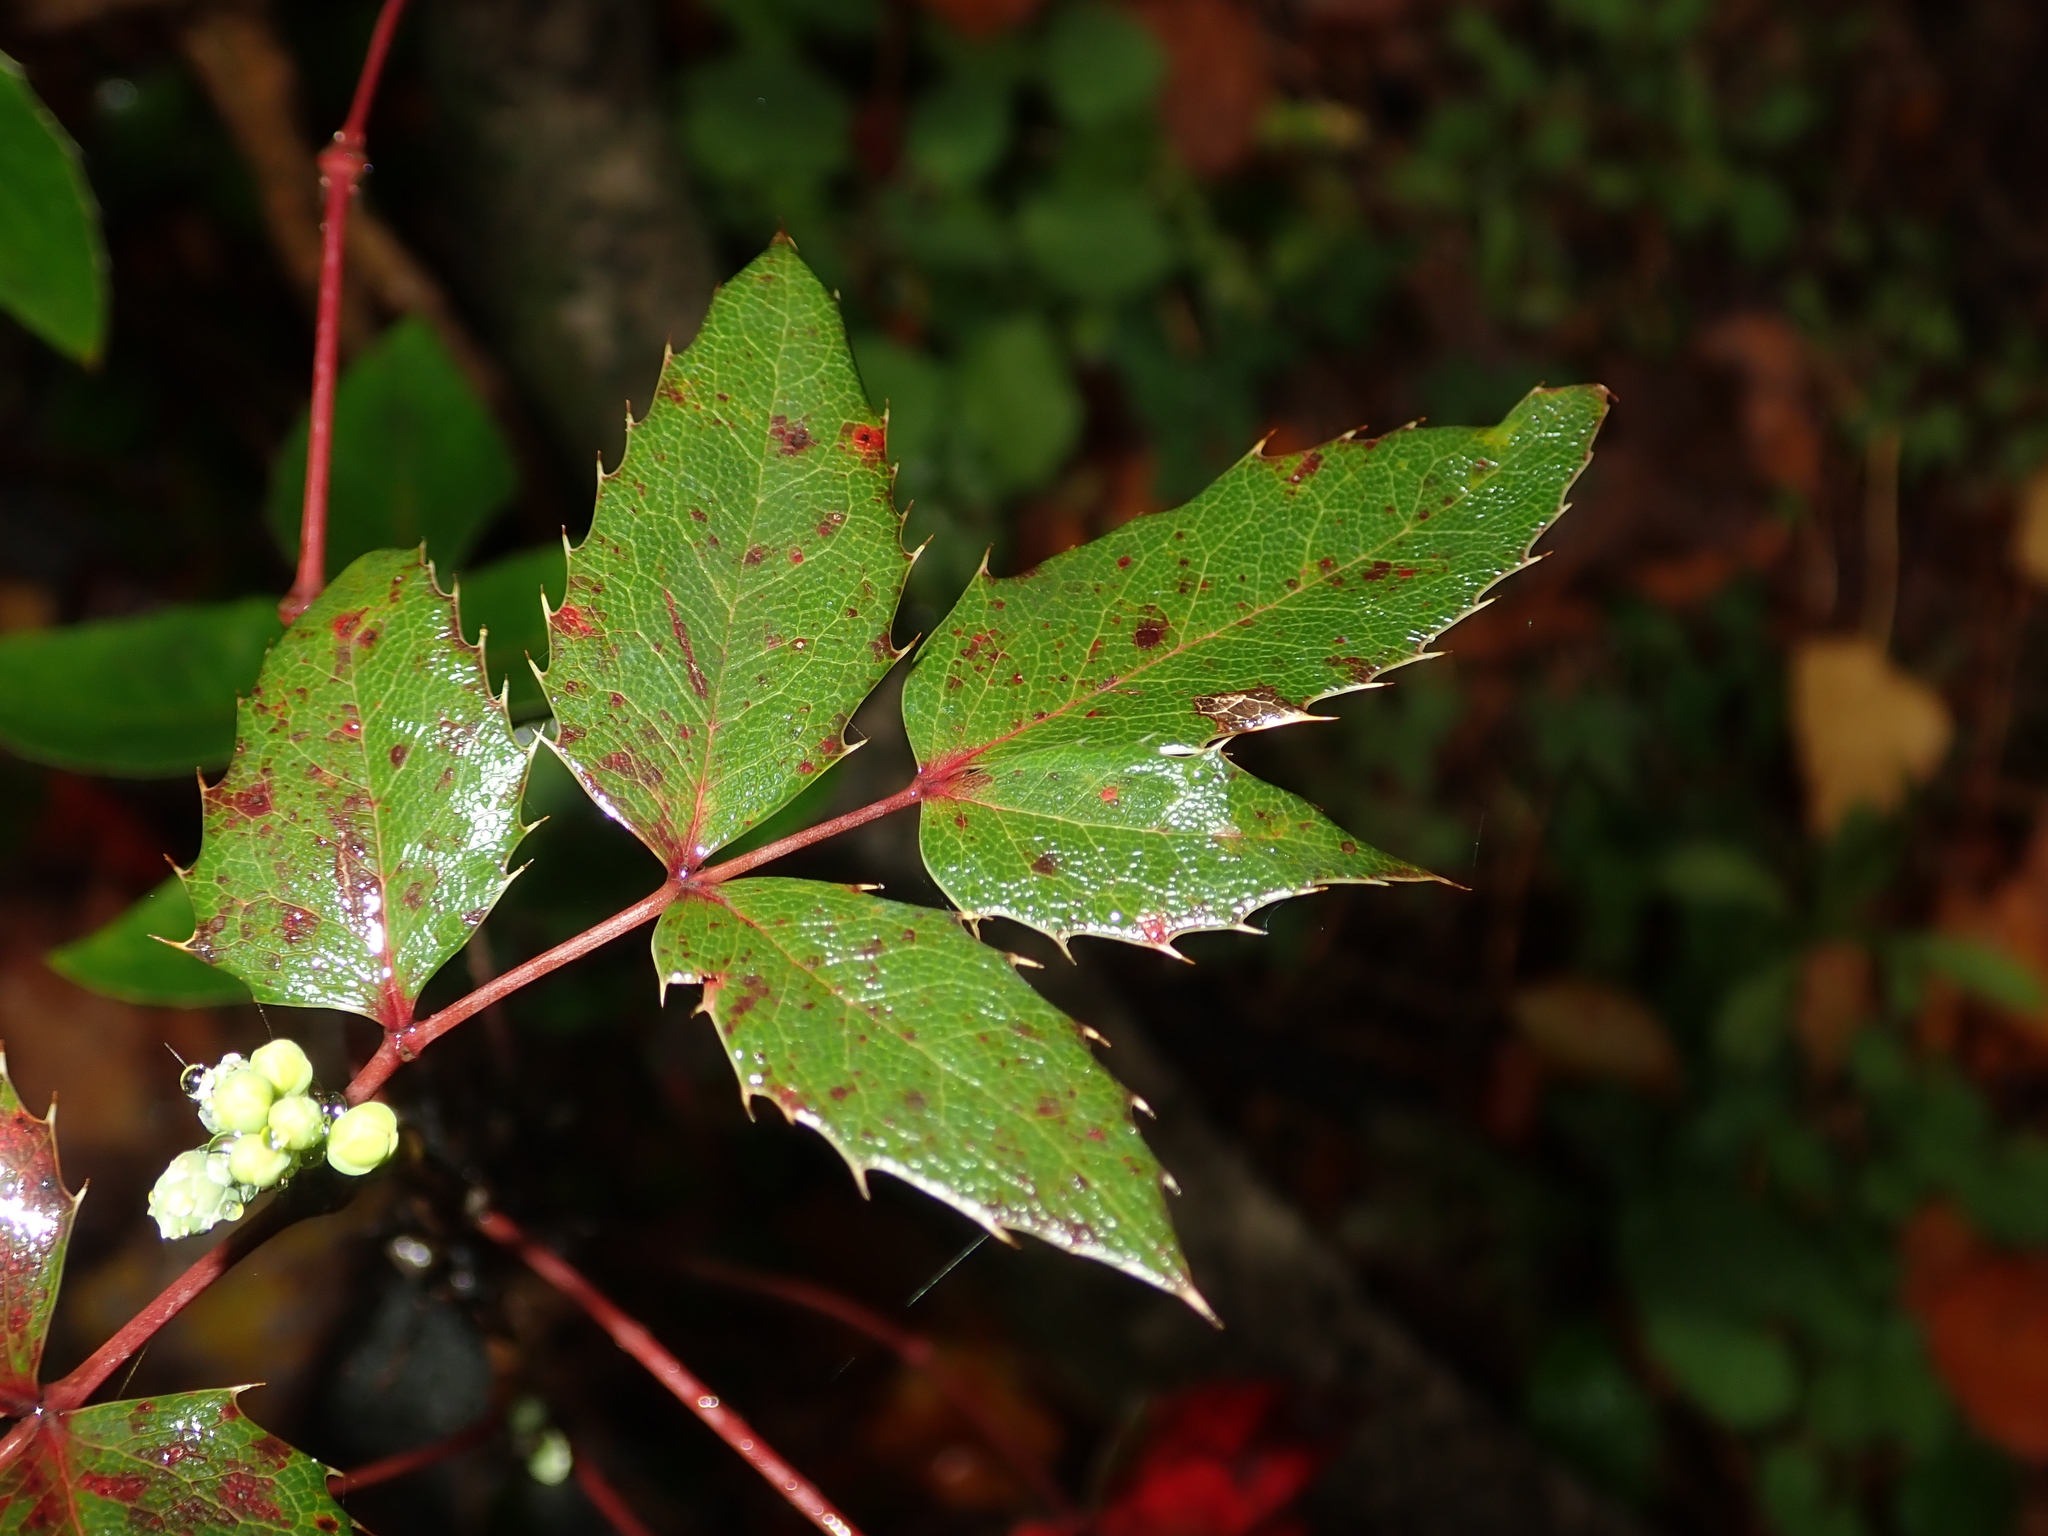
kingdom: Plantae
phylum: Tracheophyta
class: Magnoliopsida
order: Ranunculales
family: Berberidaceae
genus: Mahonia
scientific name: Mahonia aquifolium
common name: Oregon-grape
